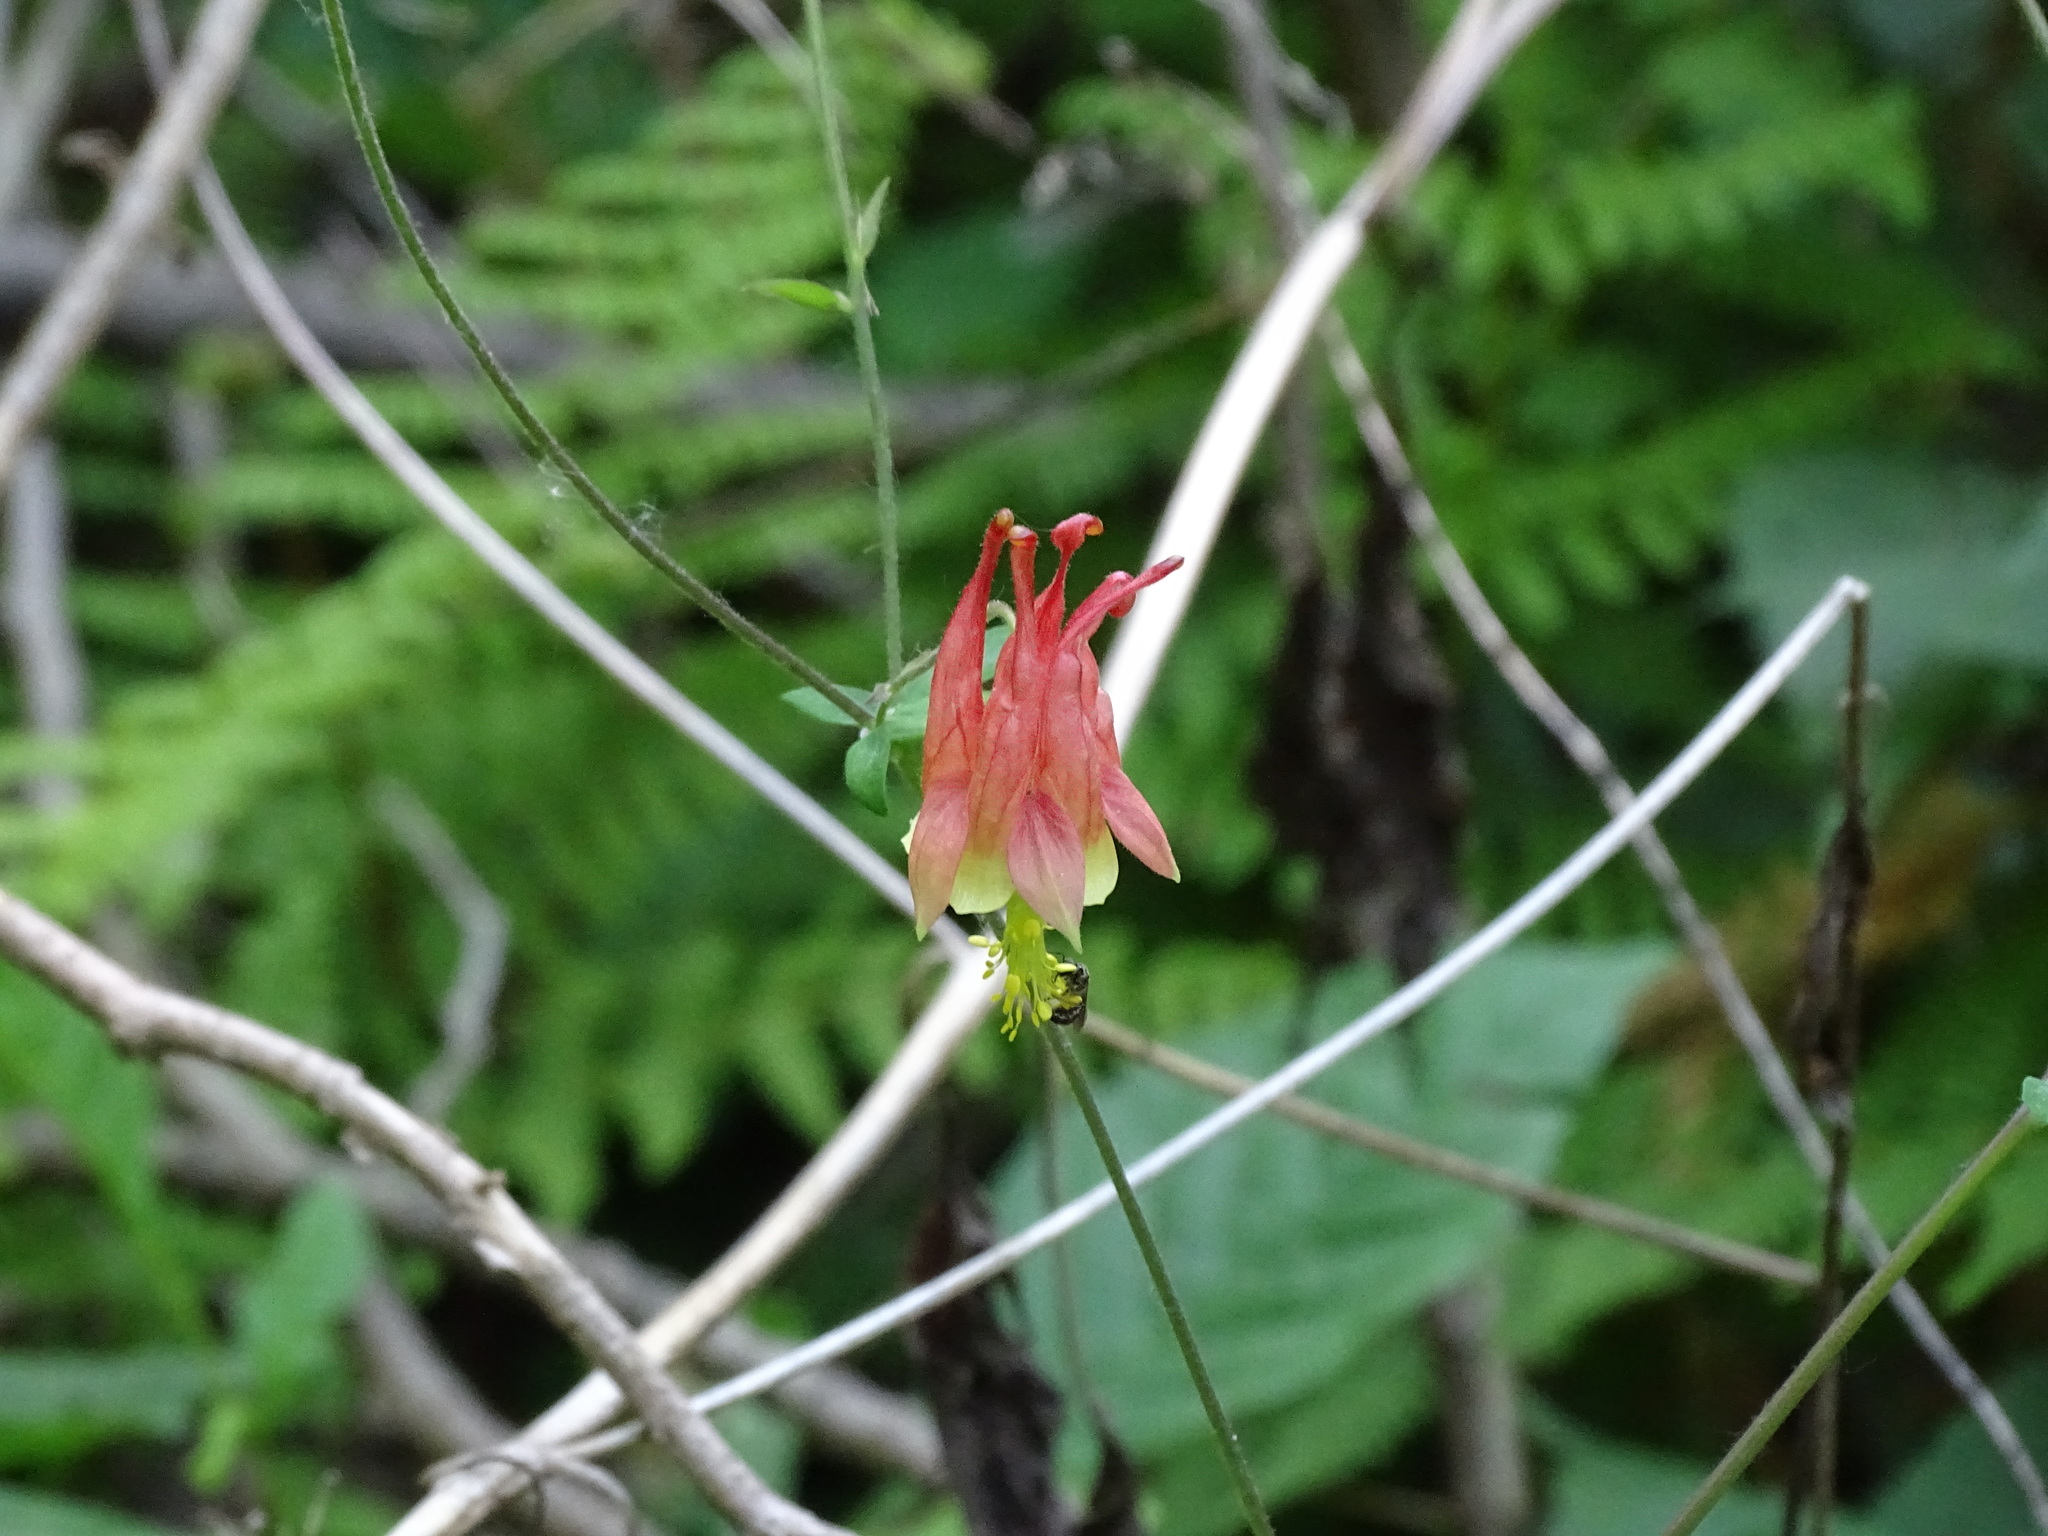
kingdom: Plantae
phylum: Tracheophyta
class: Magnoliopsida
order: Ranunculales
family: Ranunculaceae
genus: Aquilegia
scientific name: Aquilegia canadensis
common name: American columbine
